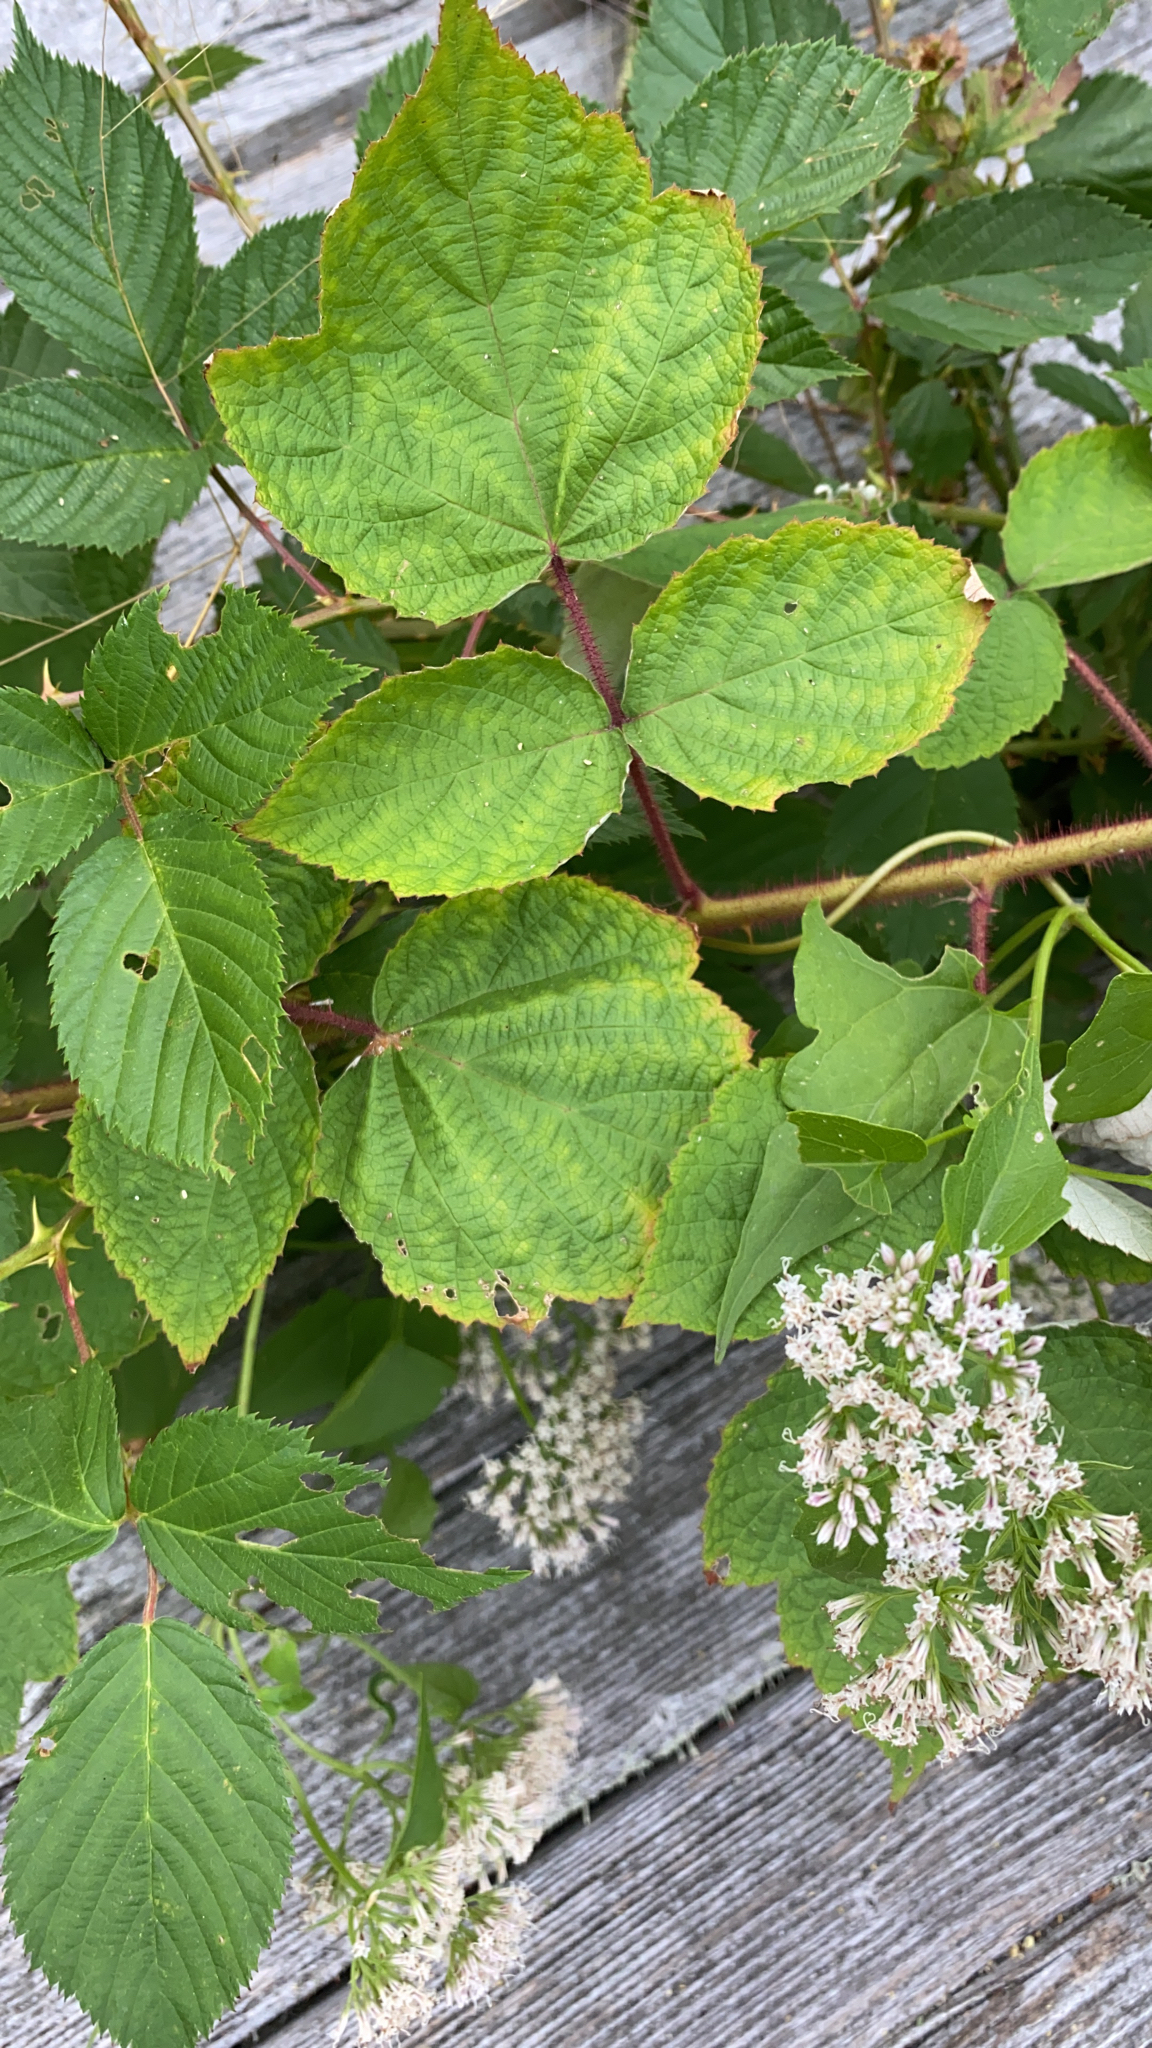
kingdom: Plantae
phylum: Tracheophyta
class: Magnoliopsida
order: Rosales
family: Rosaceae
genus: Rubus
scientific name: Rubus phoenicolasius
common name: Japanese wineberry
